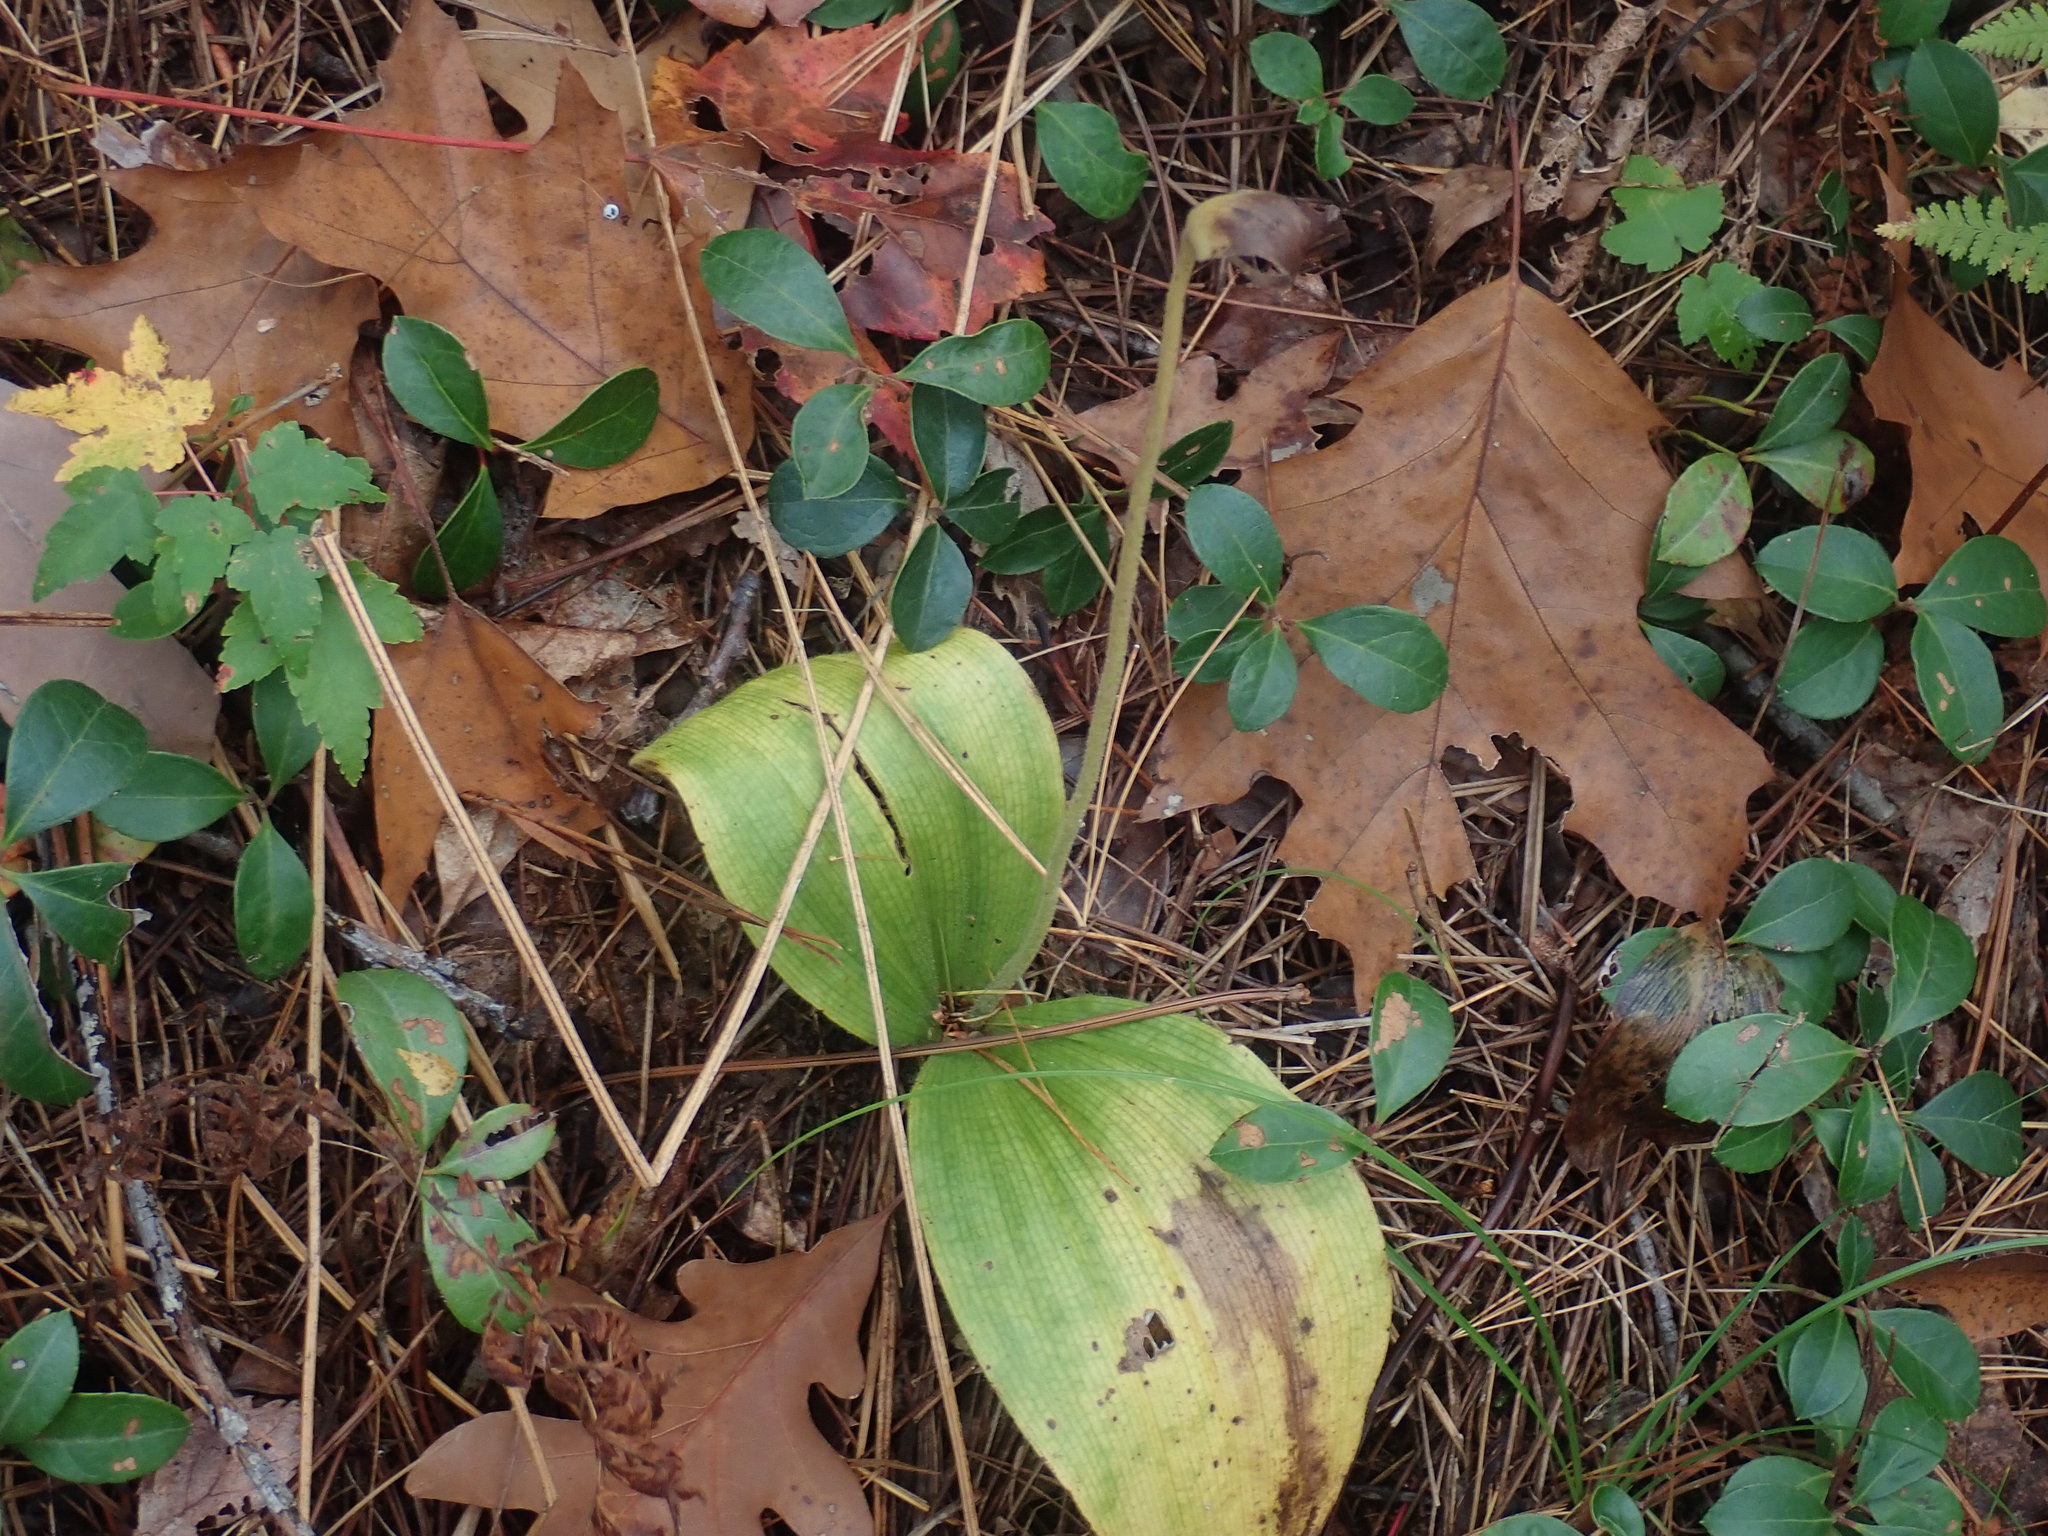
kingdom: Plantae
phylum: Tracheophyta
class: Liliopsida
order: Asparagales
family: Orchidaceae
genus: Cypripedium
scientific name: Cypripedium acaule
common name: Pink lady's-slipper
